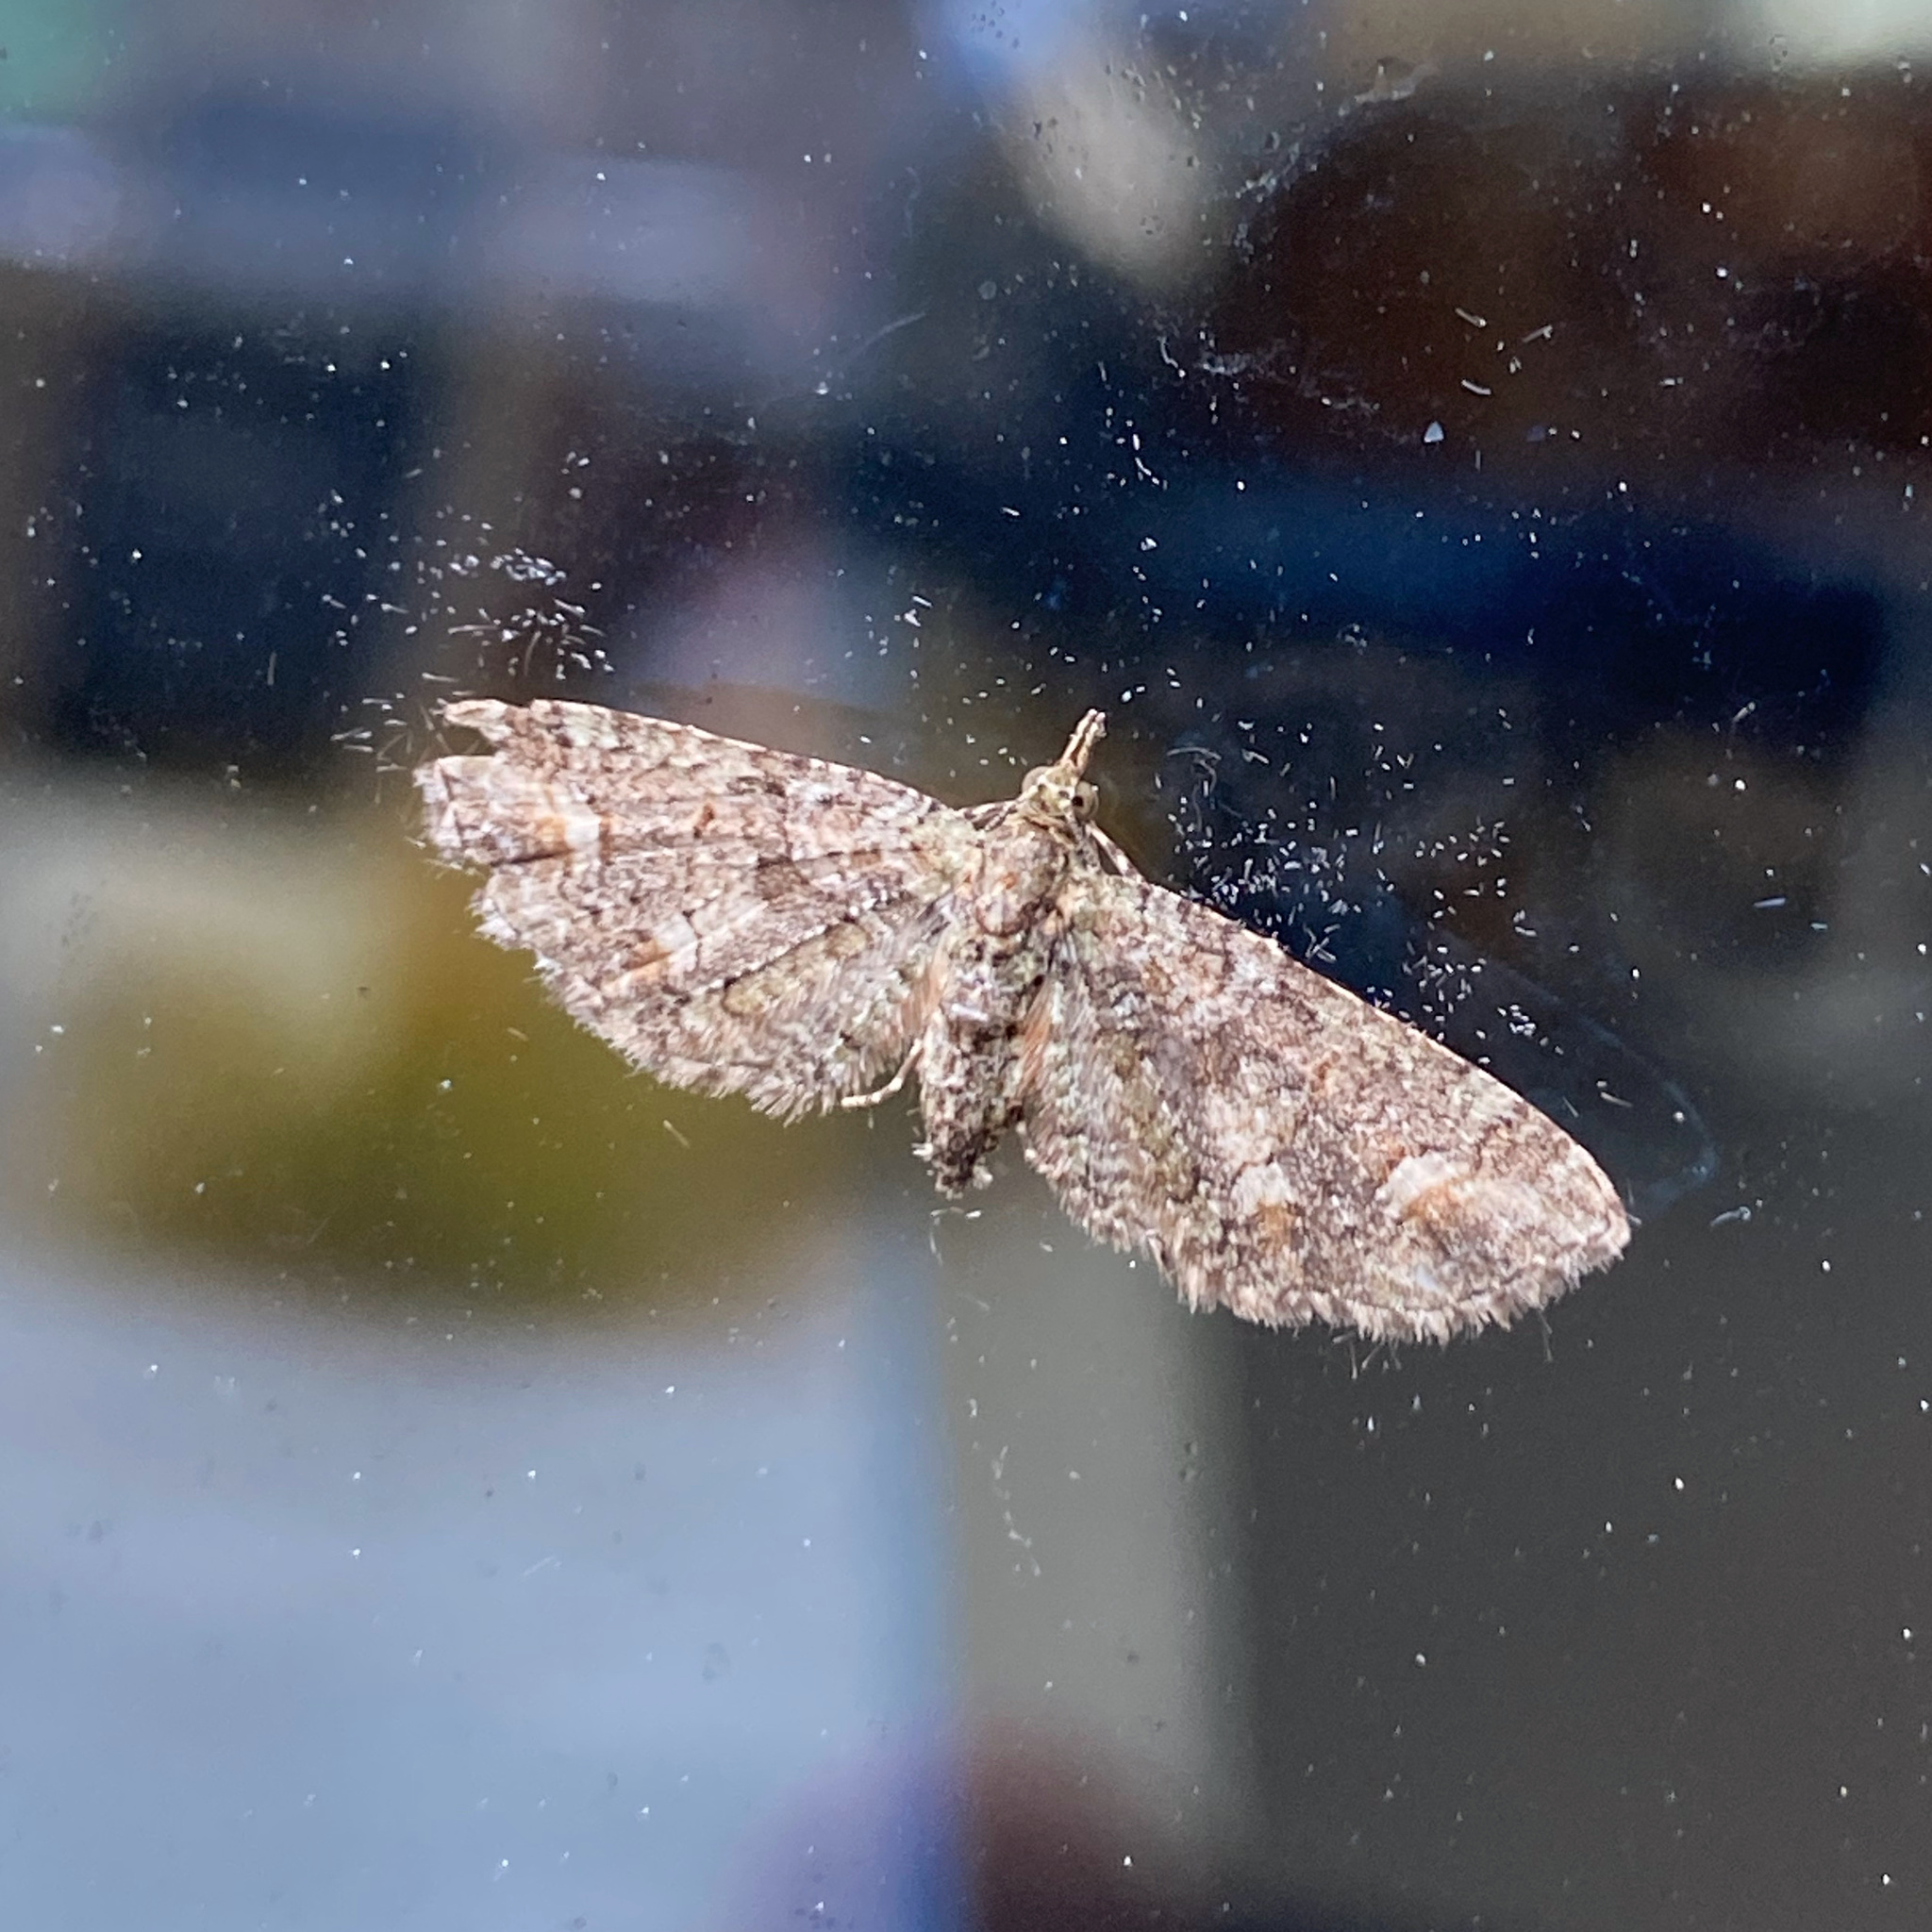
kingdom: Animalia
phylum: Arthropoda
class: Insecta
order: Lepidoptera
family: Geometridae
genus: Pasiphilodes
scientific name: Pasiphilodes testulata
